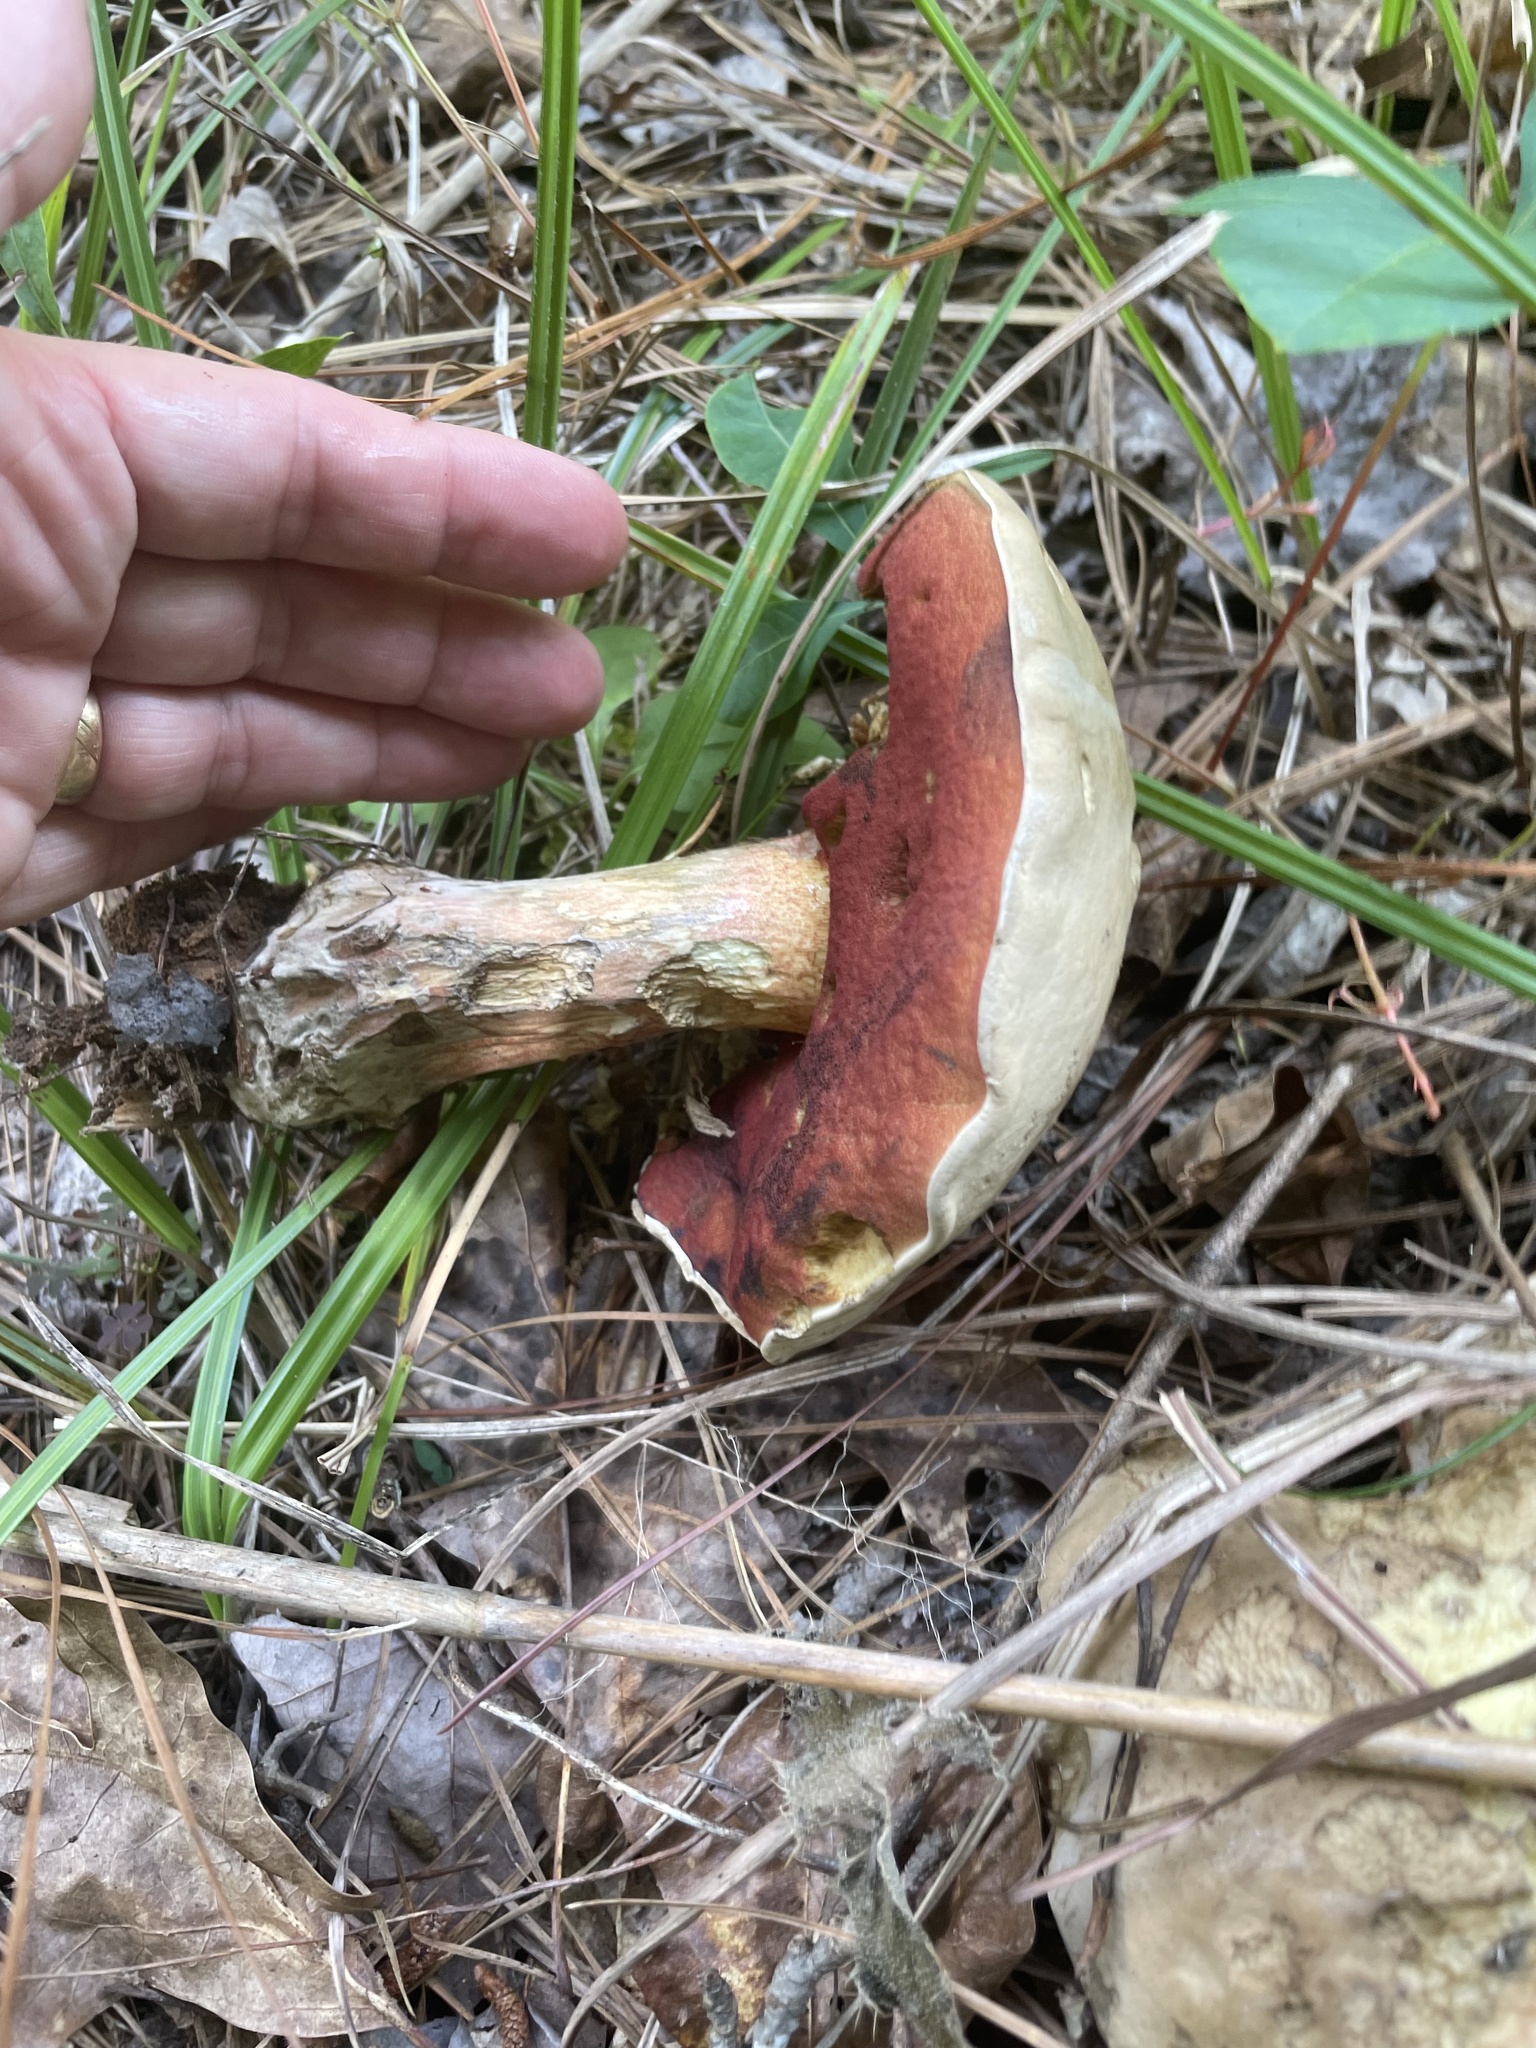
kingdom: Fungi
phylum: Basidiomycota
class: Agaricomycetes
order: Boletales
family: Boletaceae
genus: Caloboletus
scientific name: Caloboletus firmus
